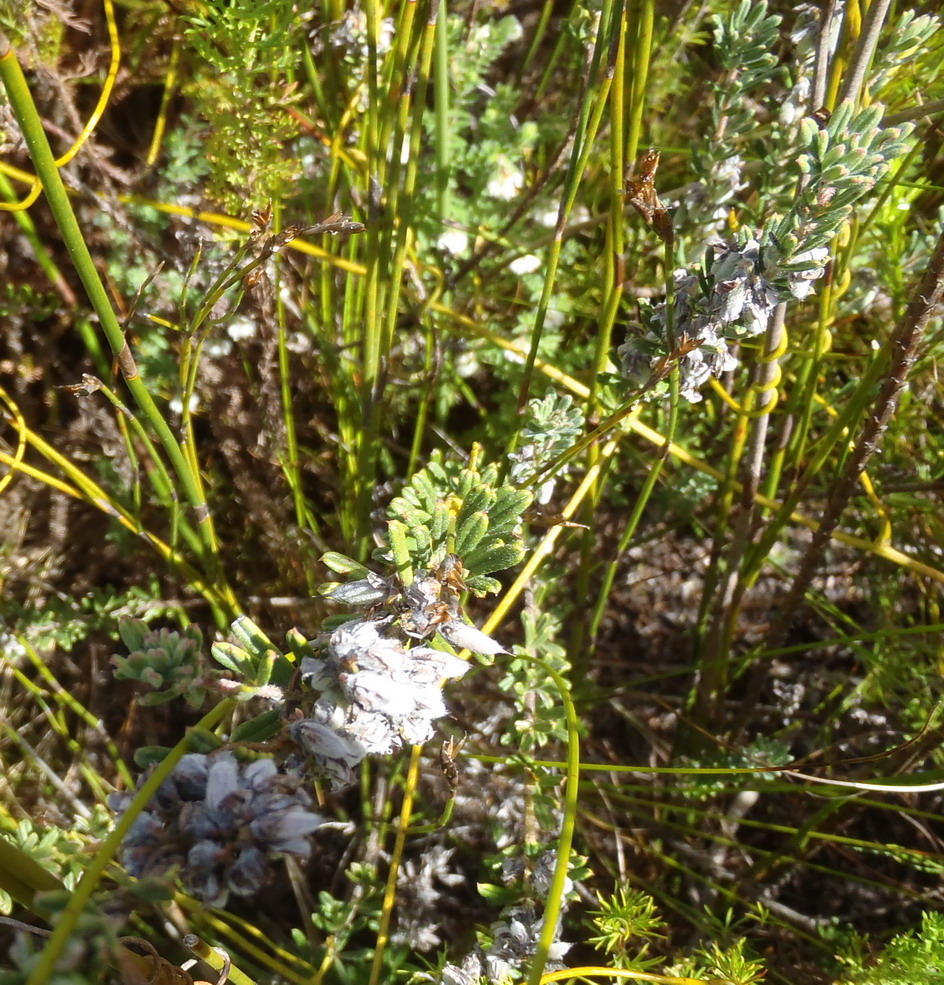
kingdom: Plantae
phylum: Tracheophyta
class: Magnoliopsida
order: Fabales
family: Fabaceae
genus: Indigofera
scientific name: Indigofera rhodantha
